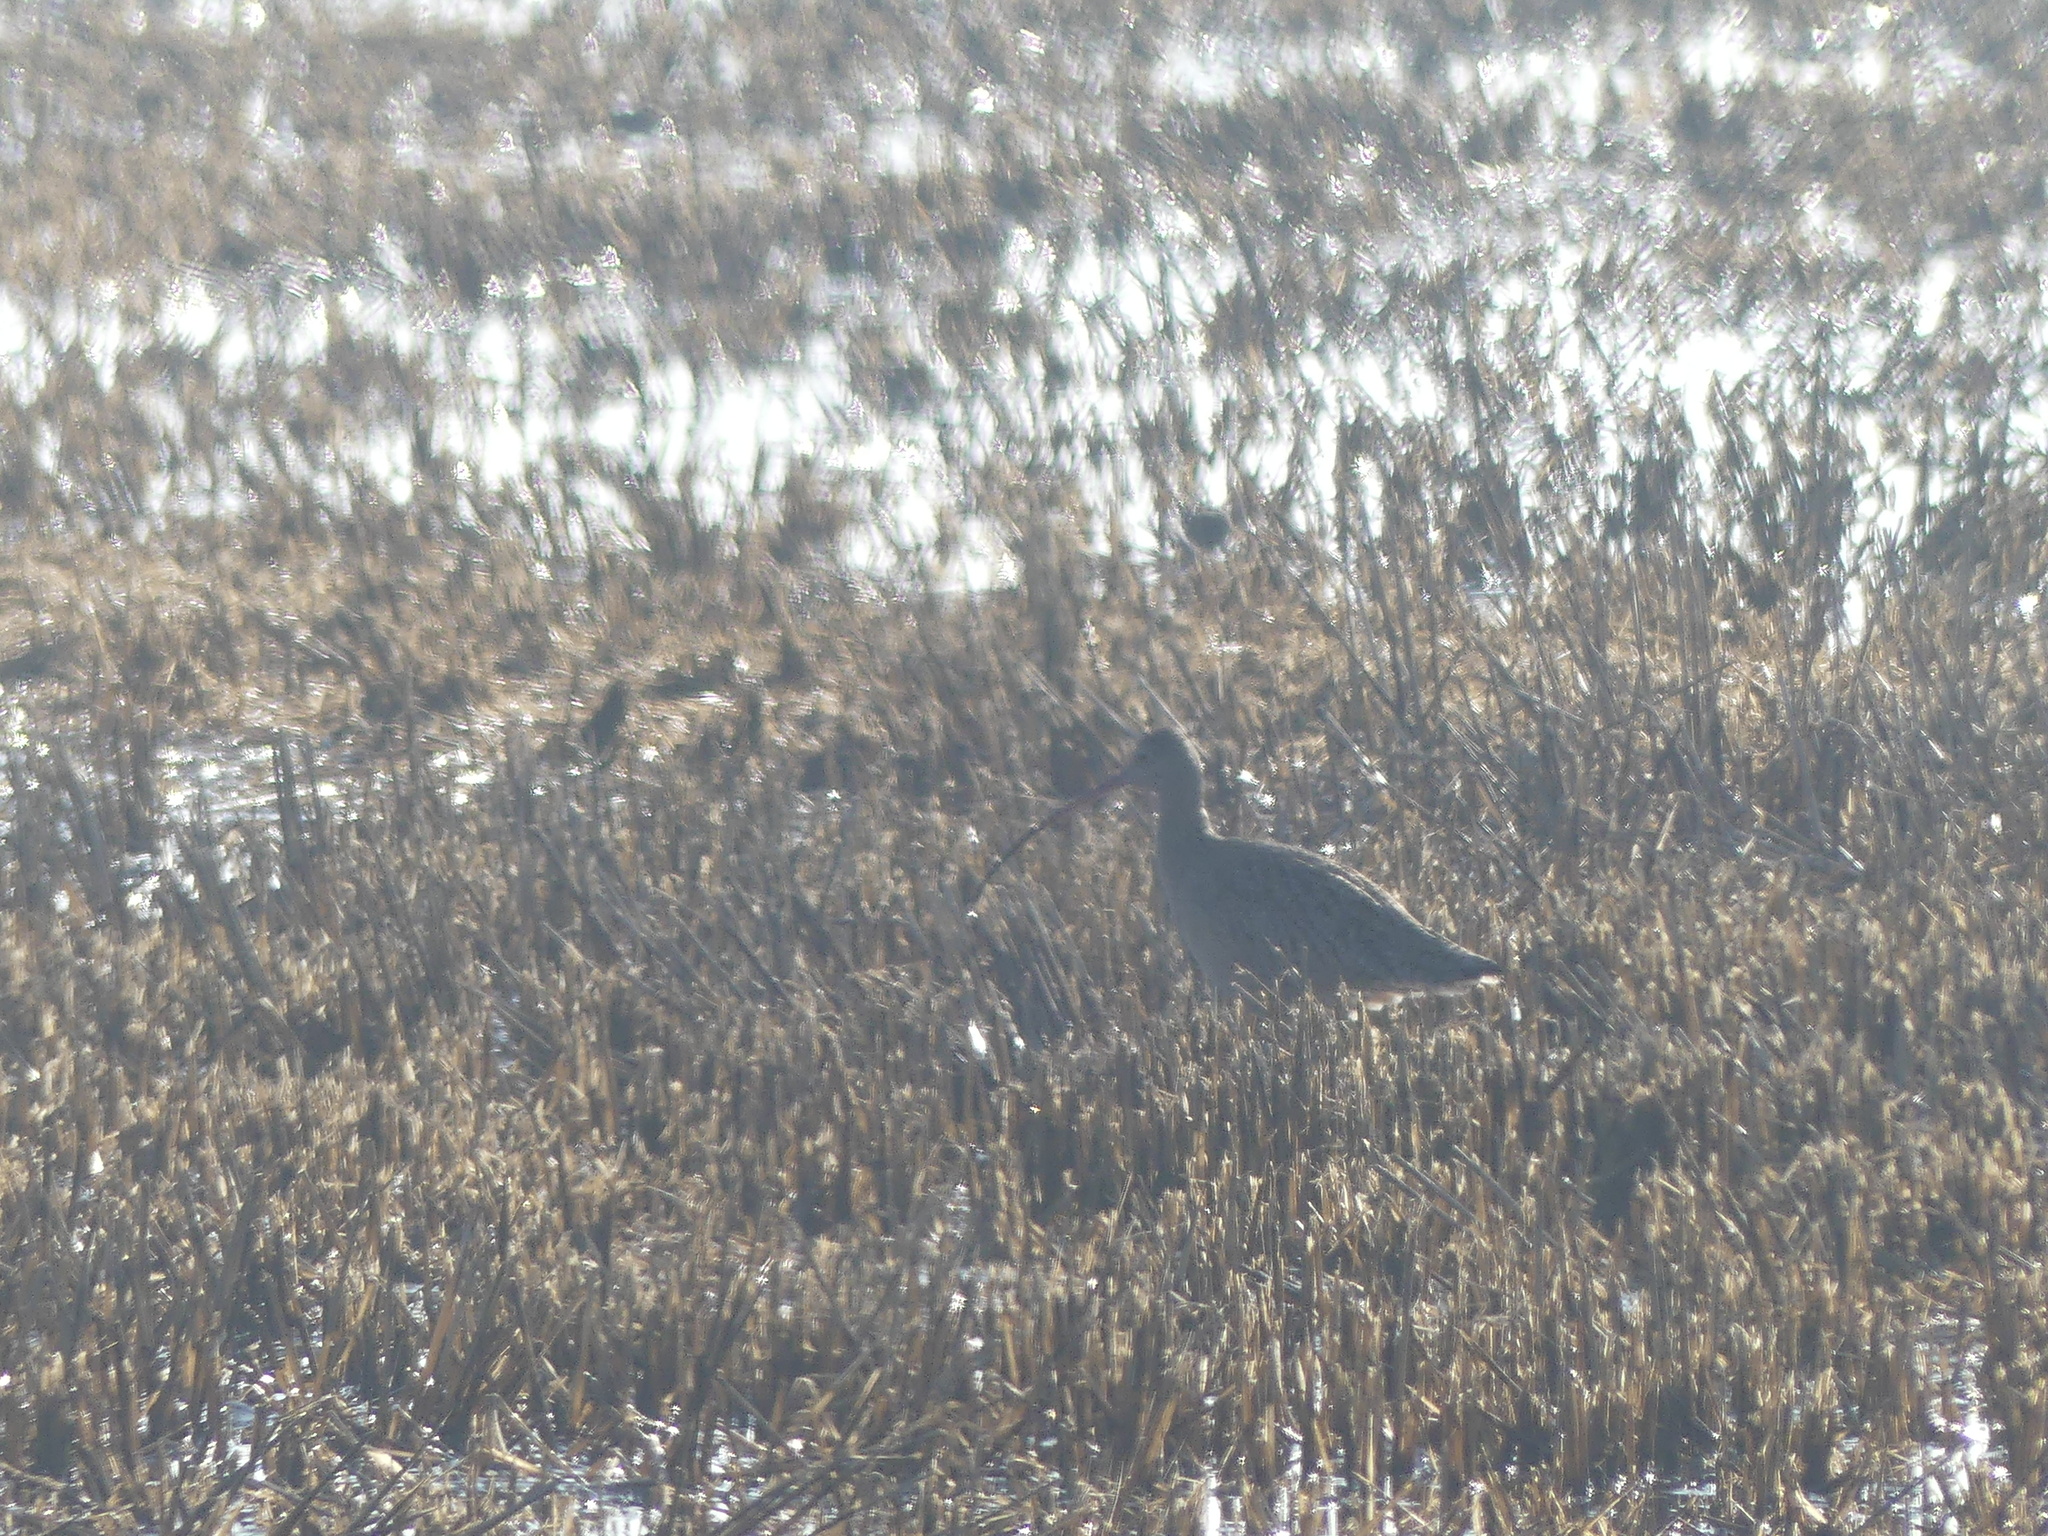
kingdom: Animalia
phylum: Chordata
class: Aves
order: Charadriiformes
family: Scolopacidae
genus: Numenius
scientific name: Numenius americanus
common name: Long-billed curlew
